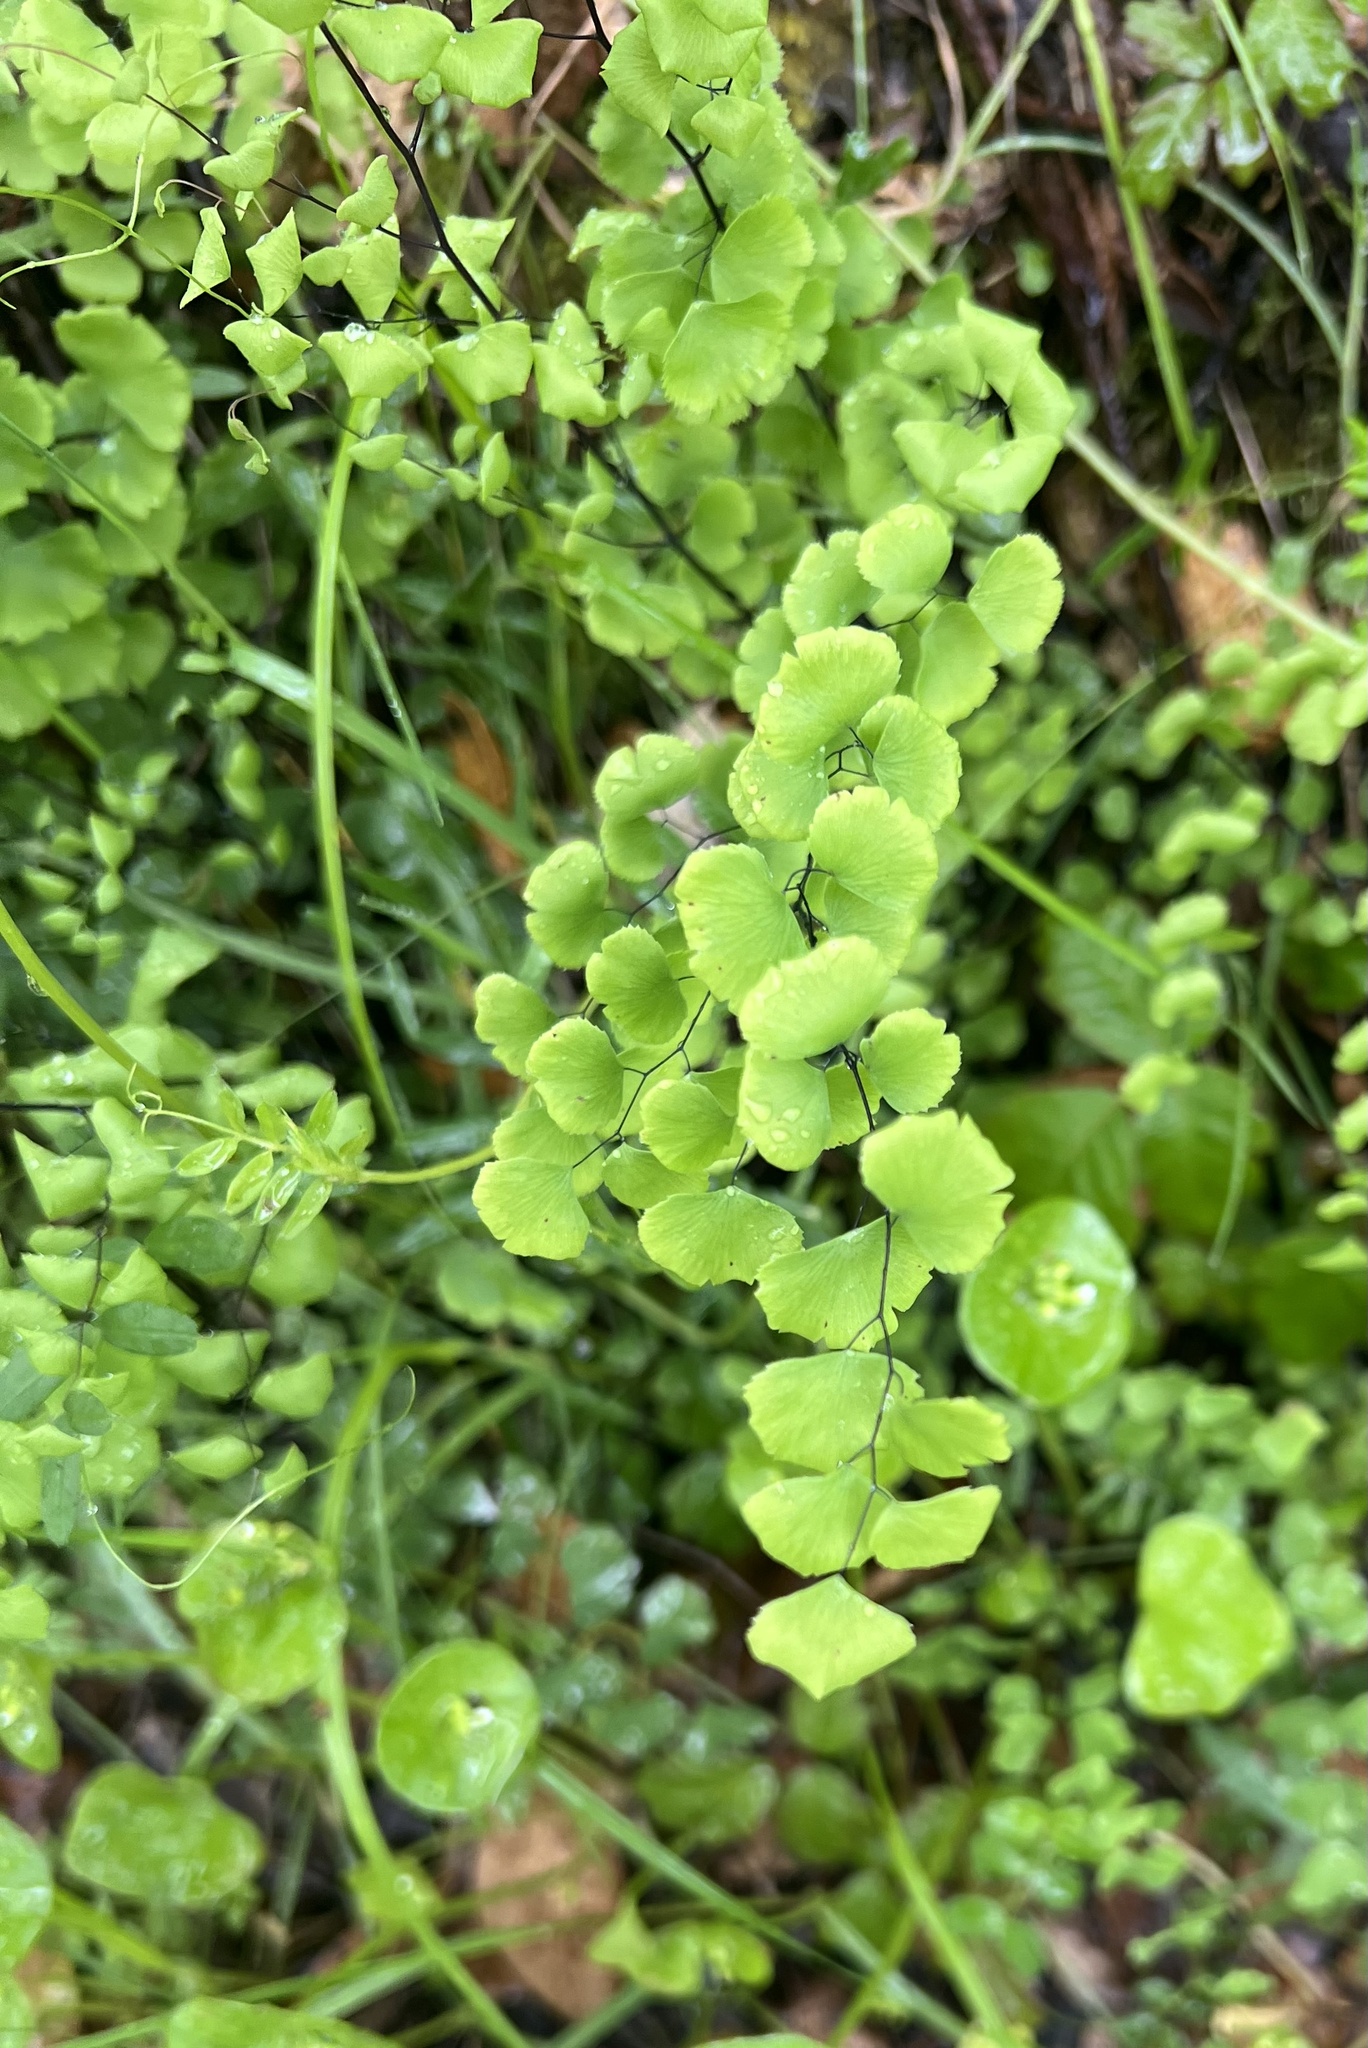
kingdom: Plantae
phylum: Tracheophyta
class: Polypodiopsida
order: Polypodiales
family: Pteridaceae
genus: Adiantum
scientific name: Adiantum jordanii
